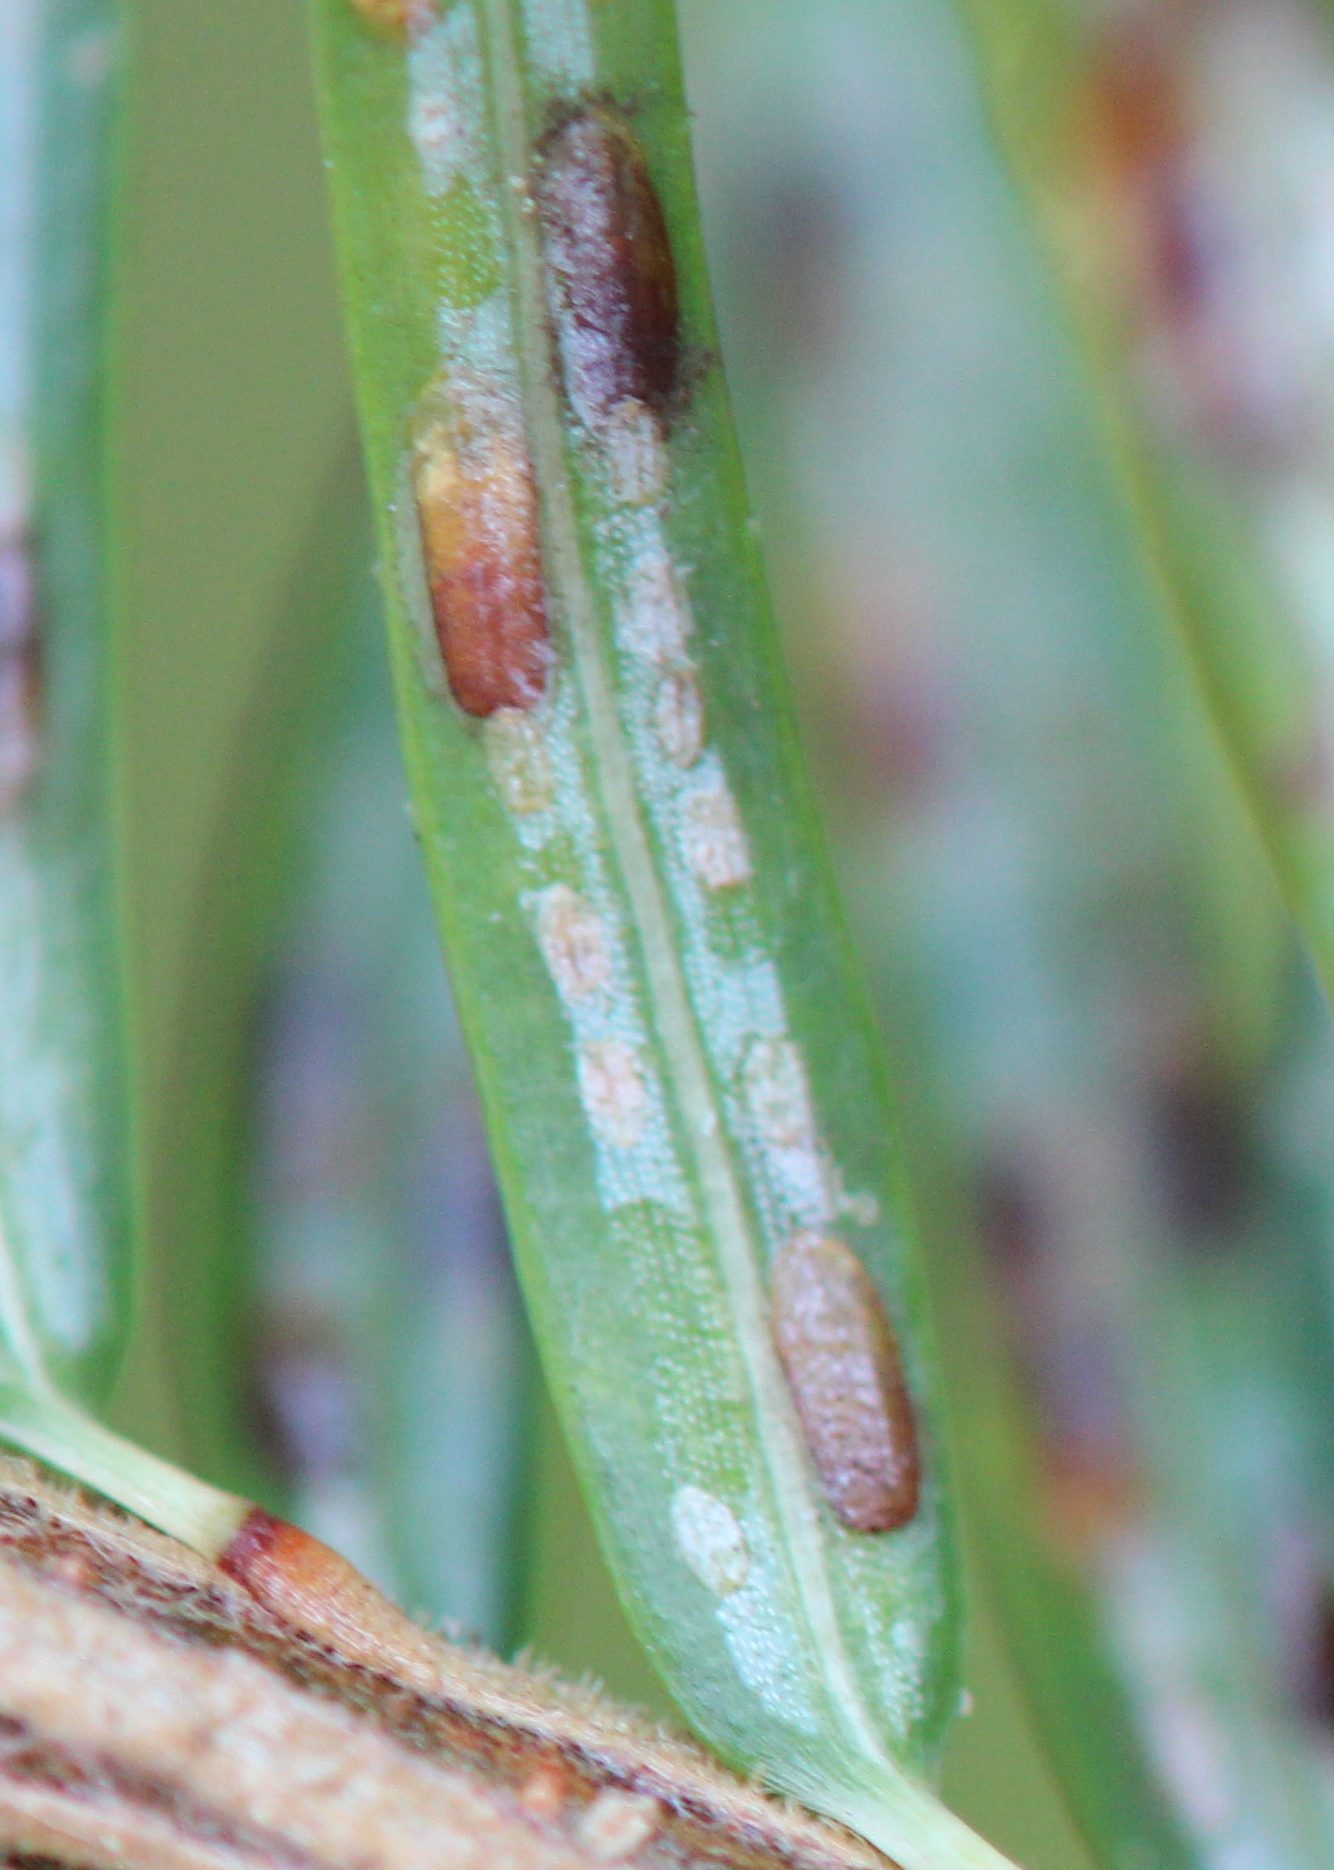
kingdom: Animalia
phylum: Arthropoda
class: Insecta
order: Hemiptera
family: Diaspididae
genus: Fiorinia
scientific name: Fiorinia externa
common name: Elongate hemlock scale
